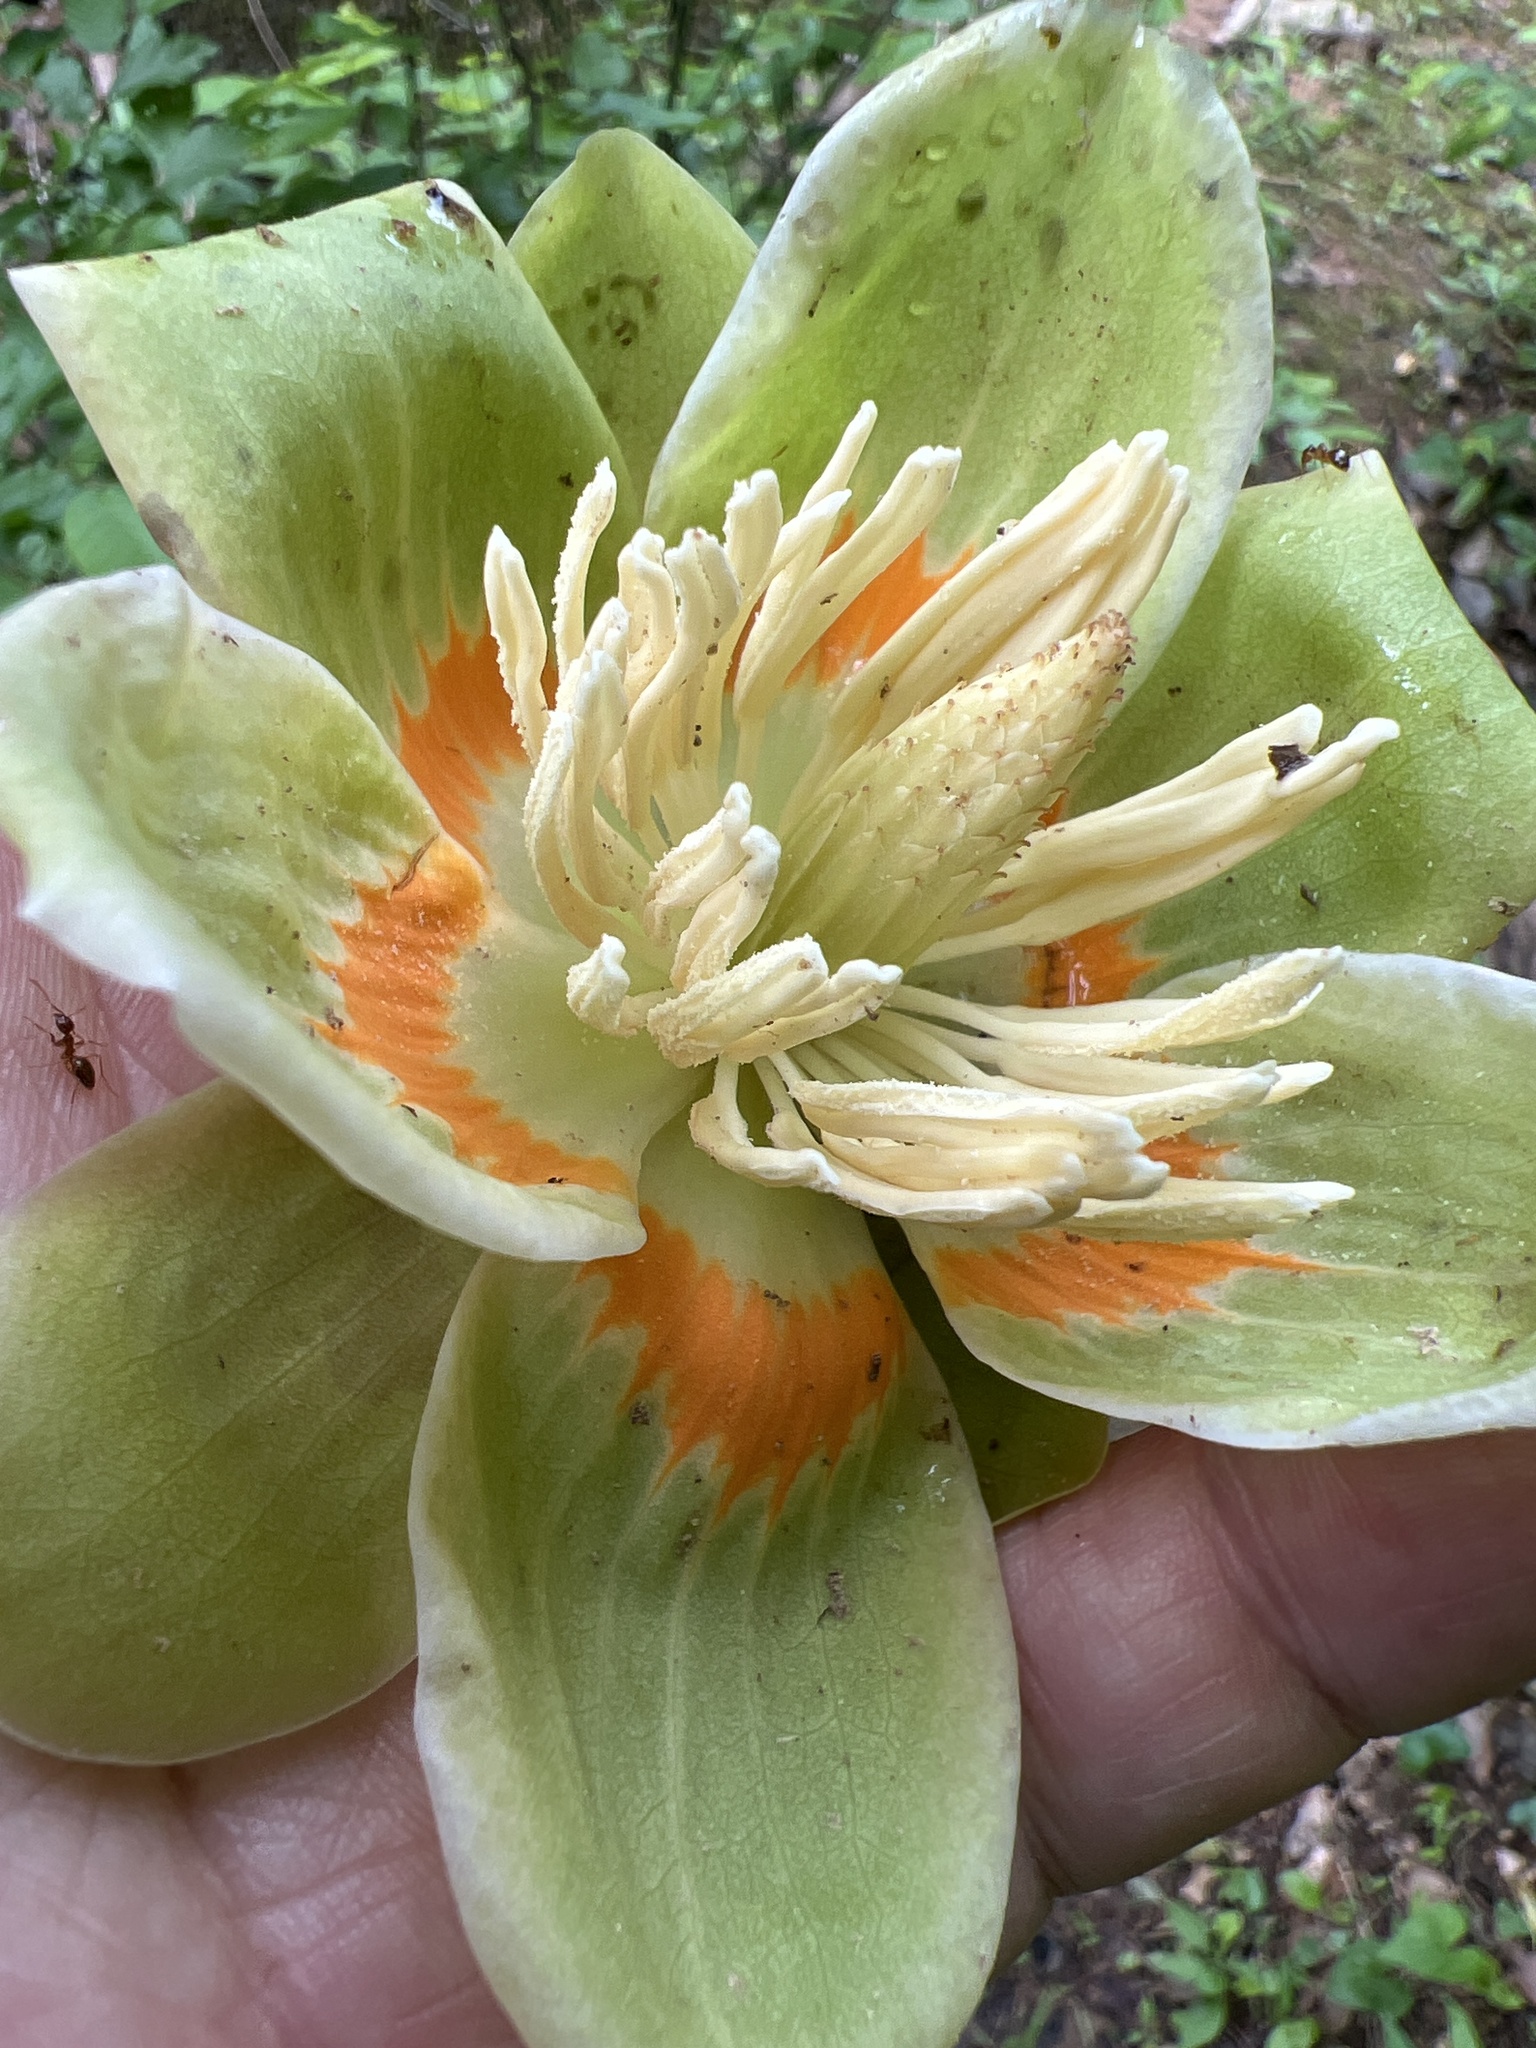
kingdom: Plantae
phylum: Tracheophyta
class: Magnoliopsida
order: Magnoliales
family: Magnoliaceae
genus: Liriodendron
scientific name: Liriodendron tulipifera
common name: Tulip tree
